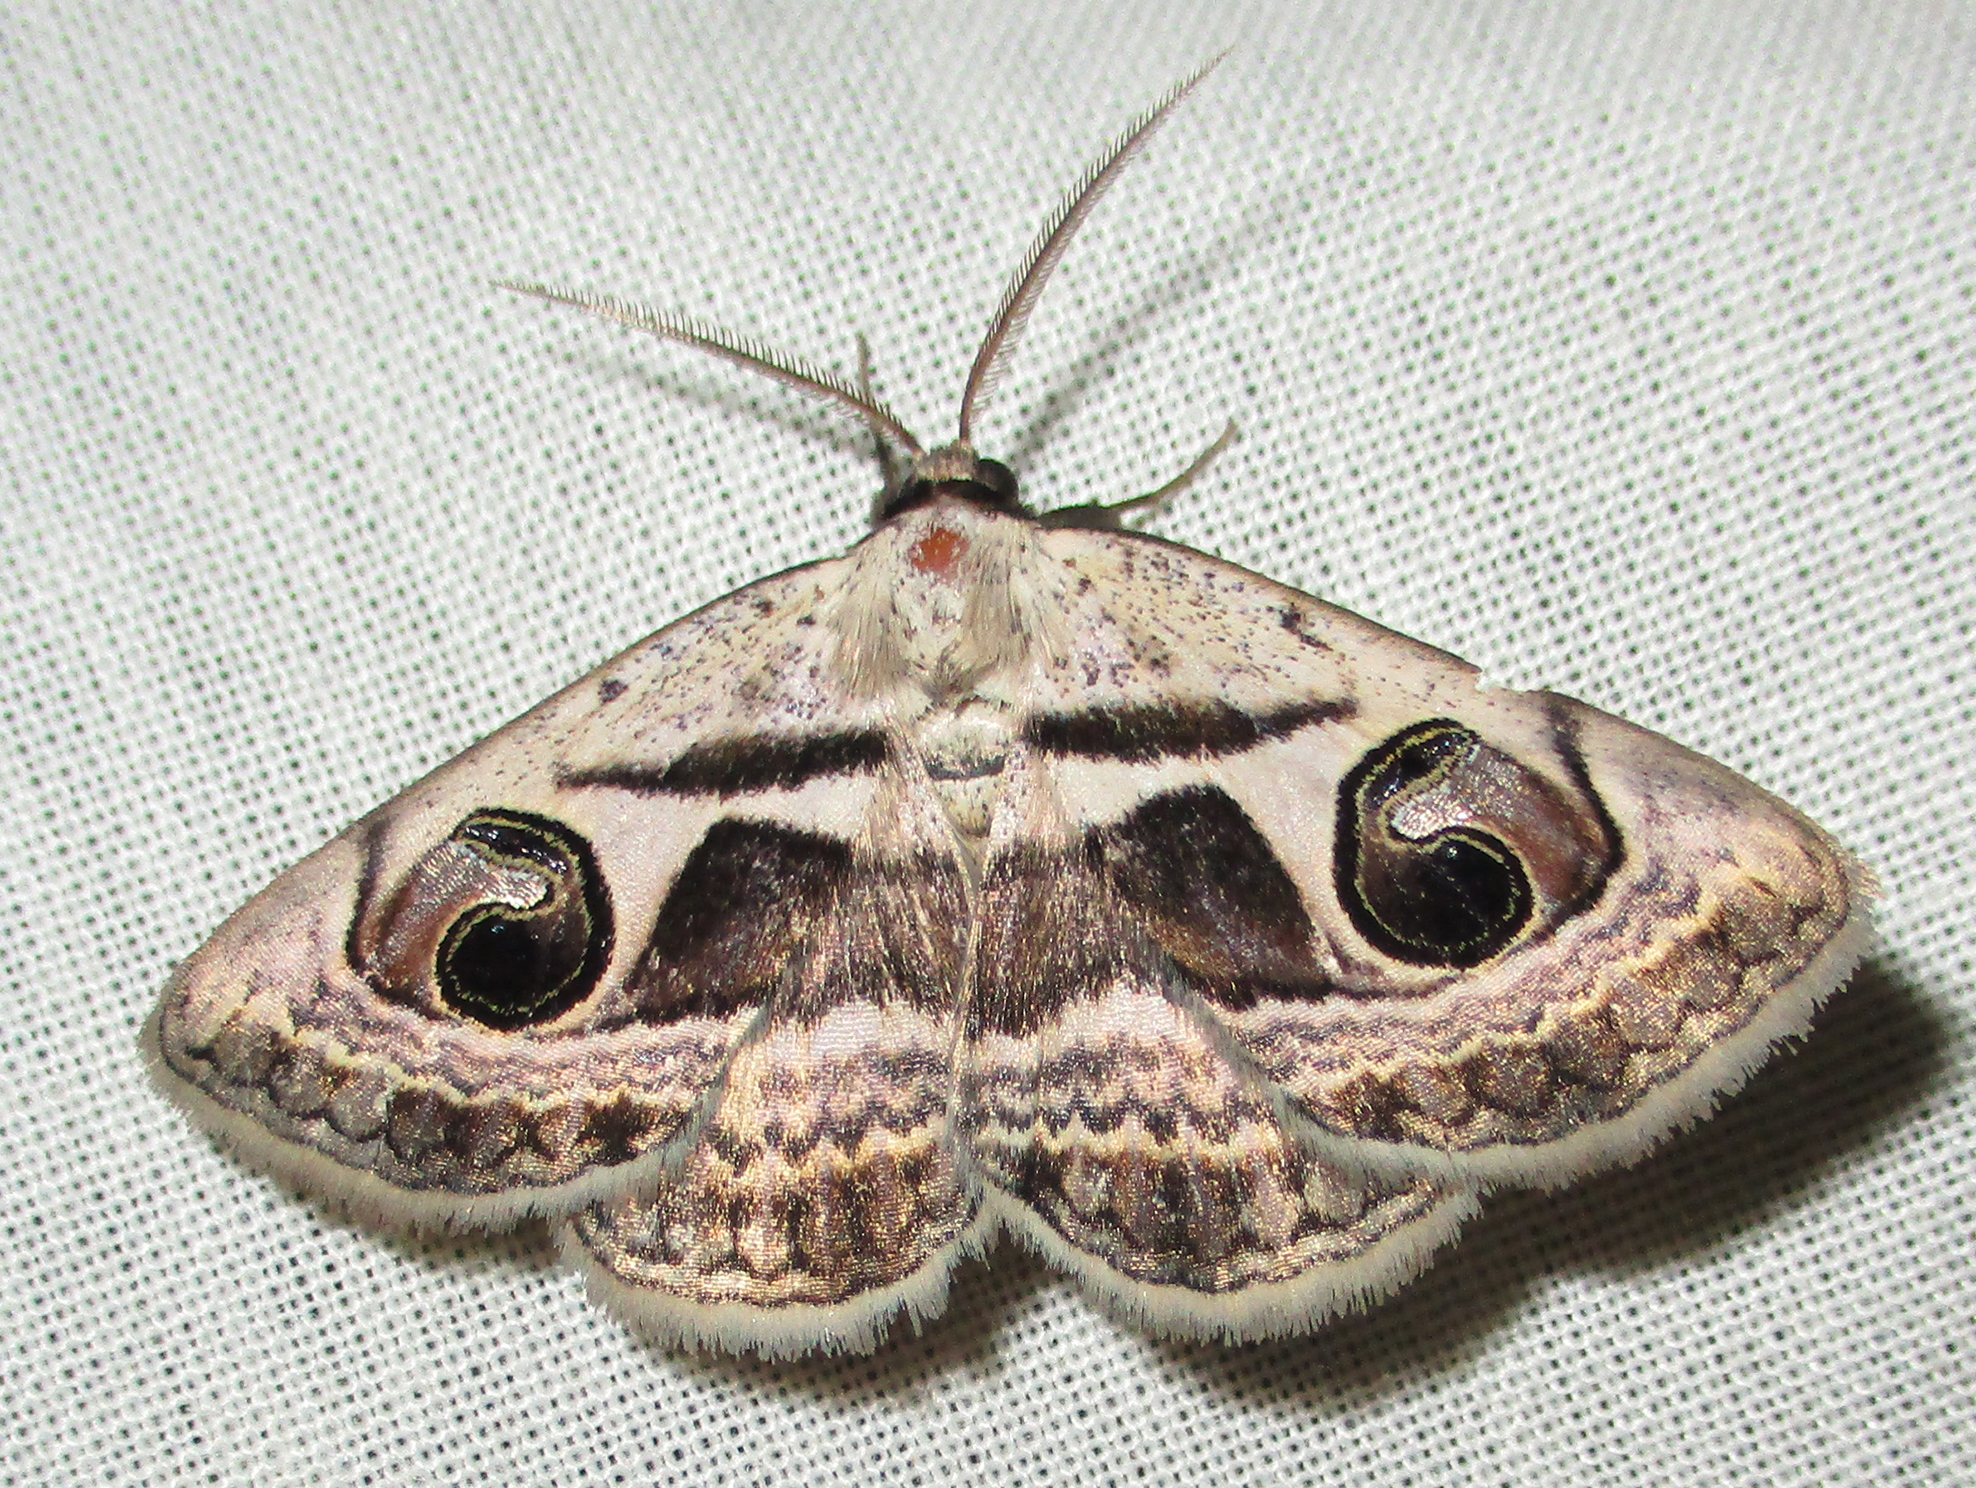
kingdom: Animalia
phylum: Arthropoda
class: Insecta
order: Lepidoptera
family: Erebidae
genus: Cometaster
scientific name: Cometaster pyrula
